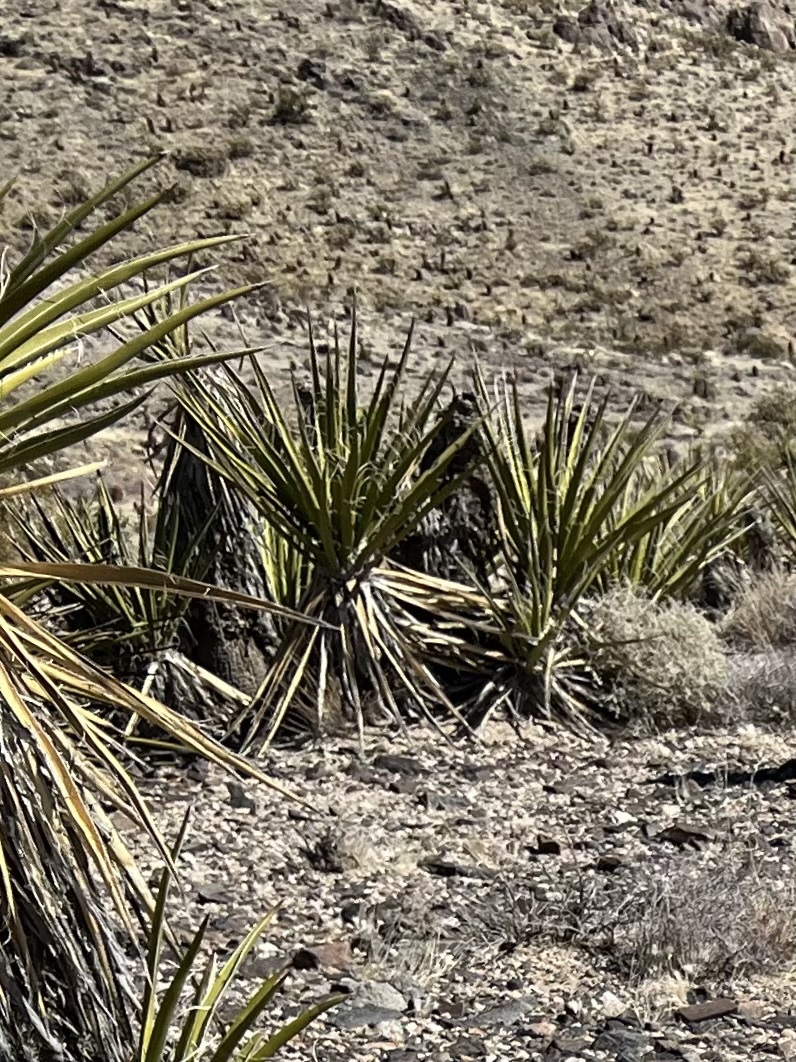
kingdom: Plantae
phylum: Tracheophyta
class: Liliopsida
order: Asparagales
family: Asparagaceae
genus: Yucca
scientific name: Yucca schidigera
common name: Mojave yucca
